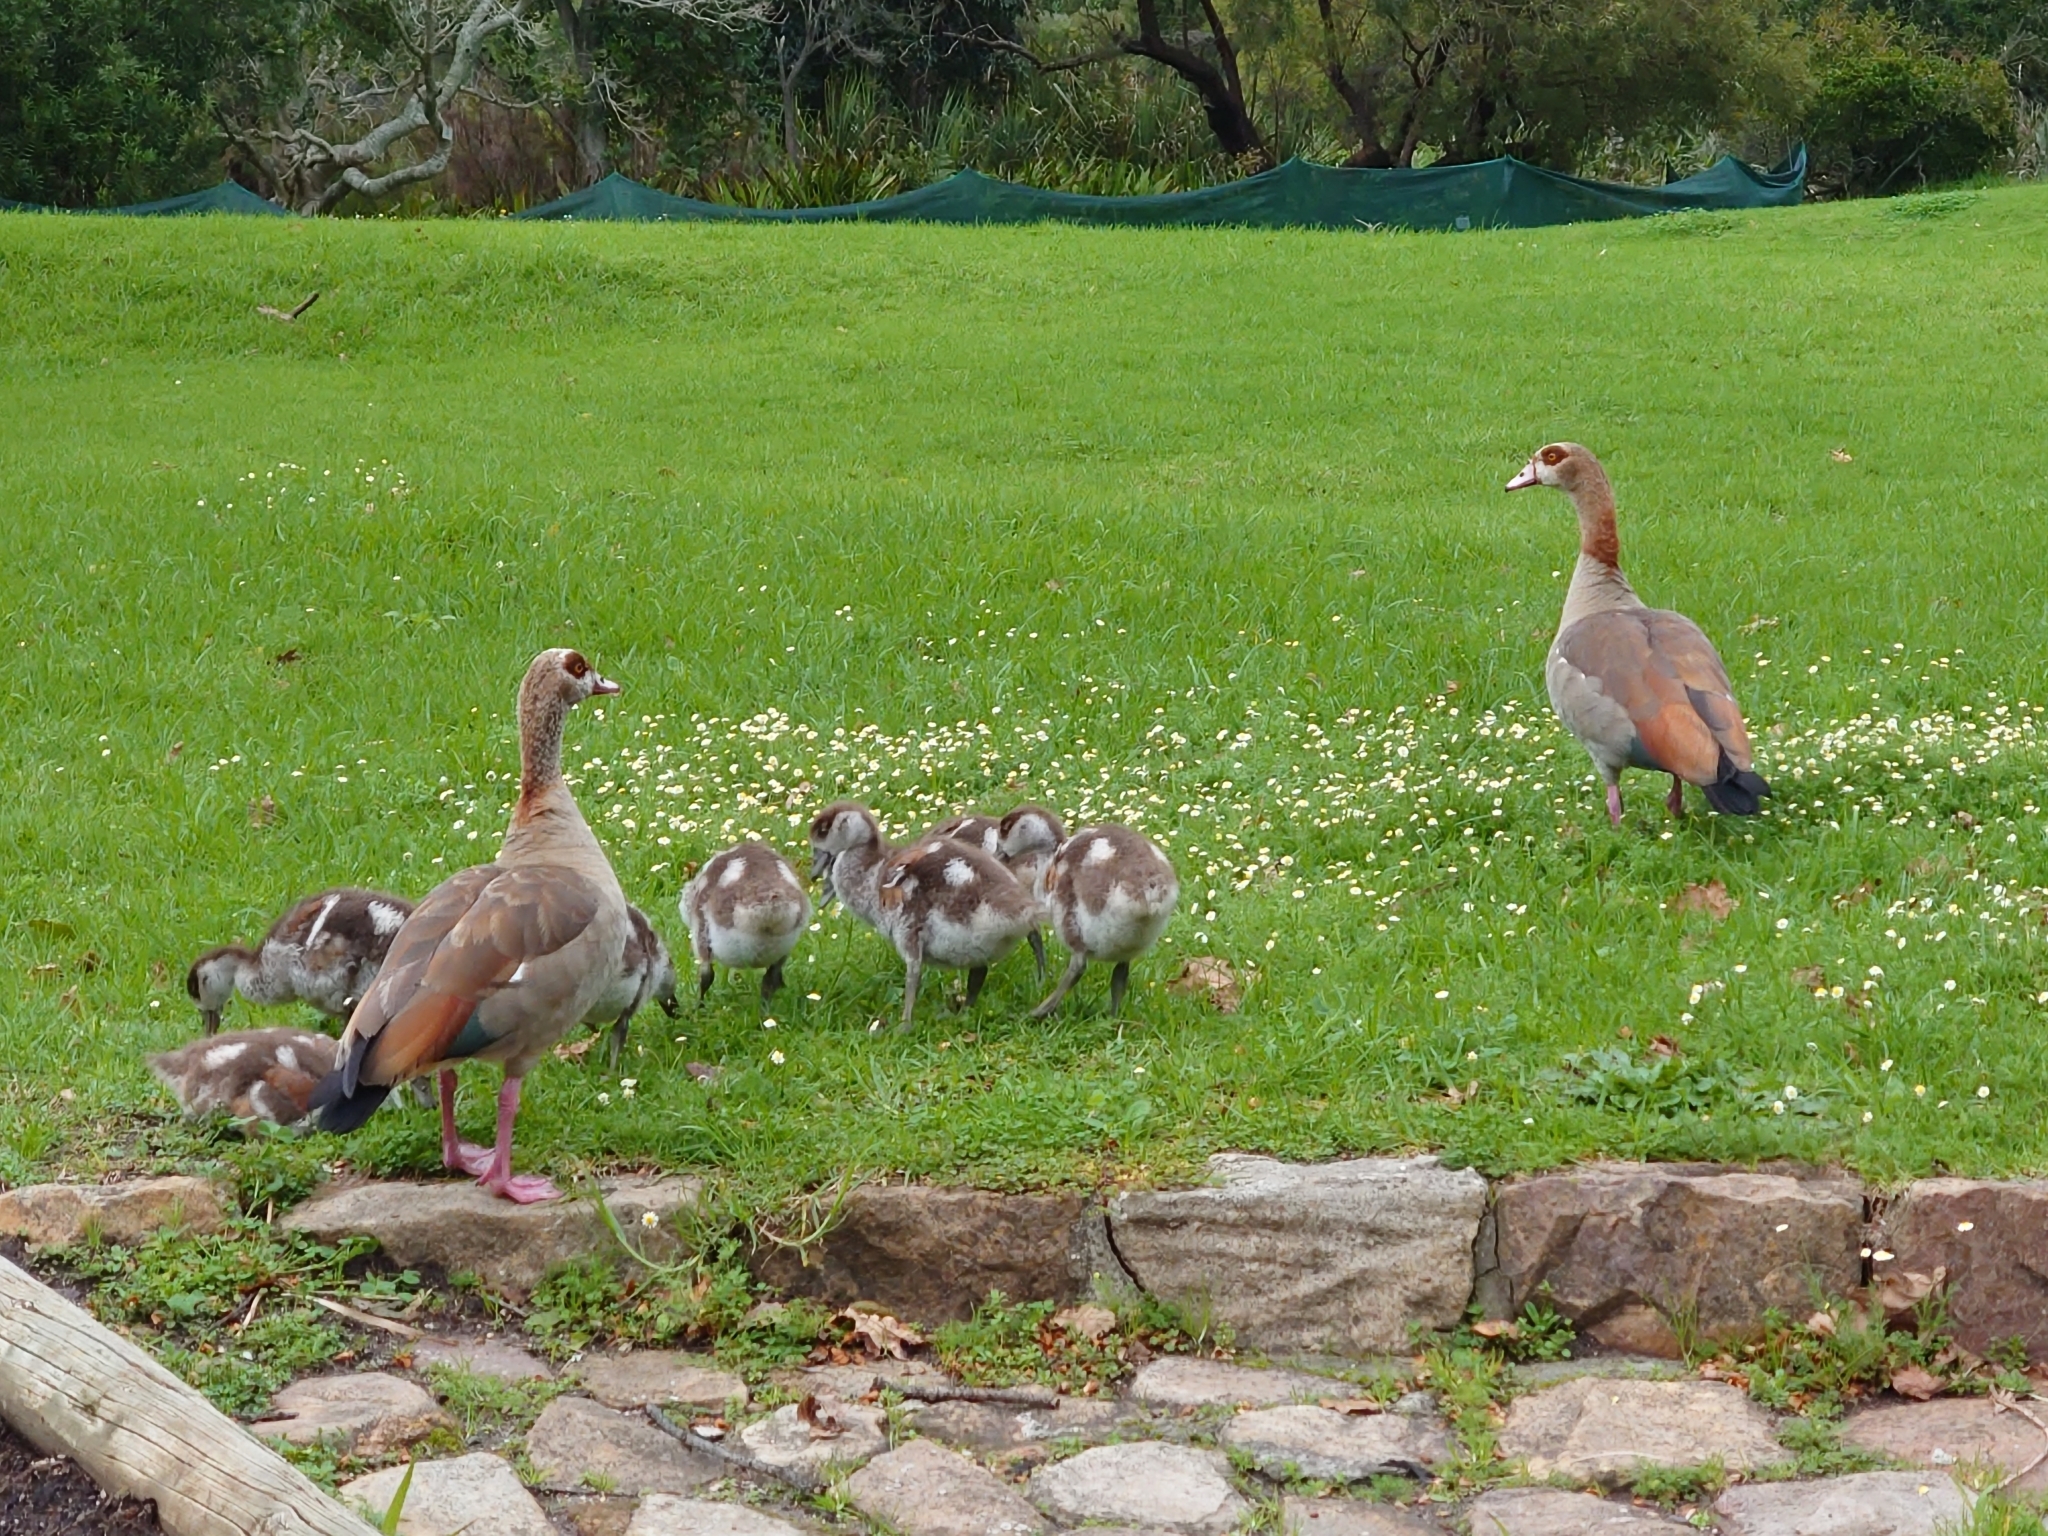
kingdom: Animalia
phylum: Chordata
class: Aves
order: Anseriformes
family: Anatidae
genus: Alopochen
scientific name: Alopochen aegyptiaca
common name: Egyptian goose
